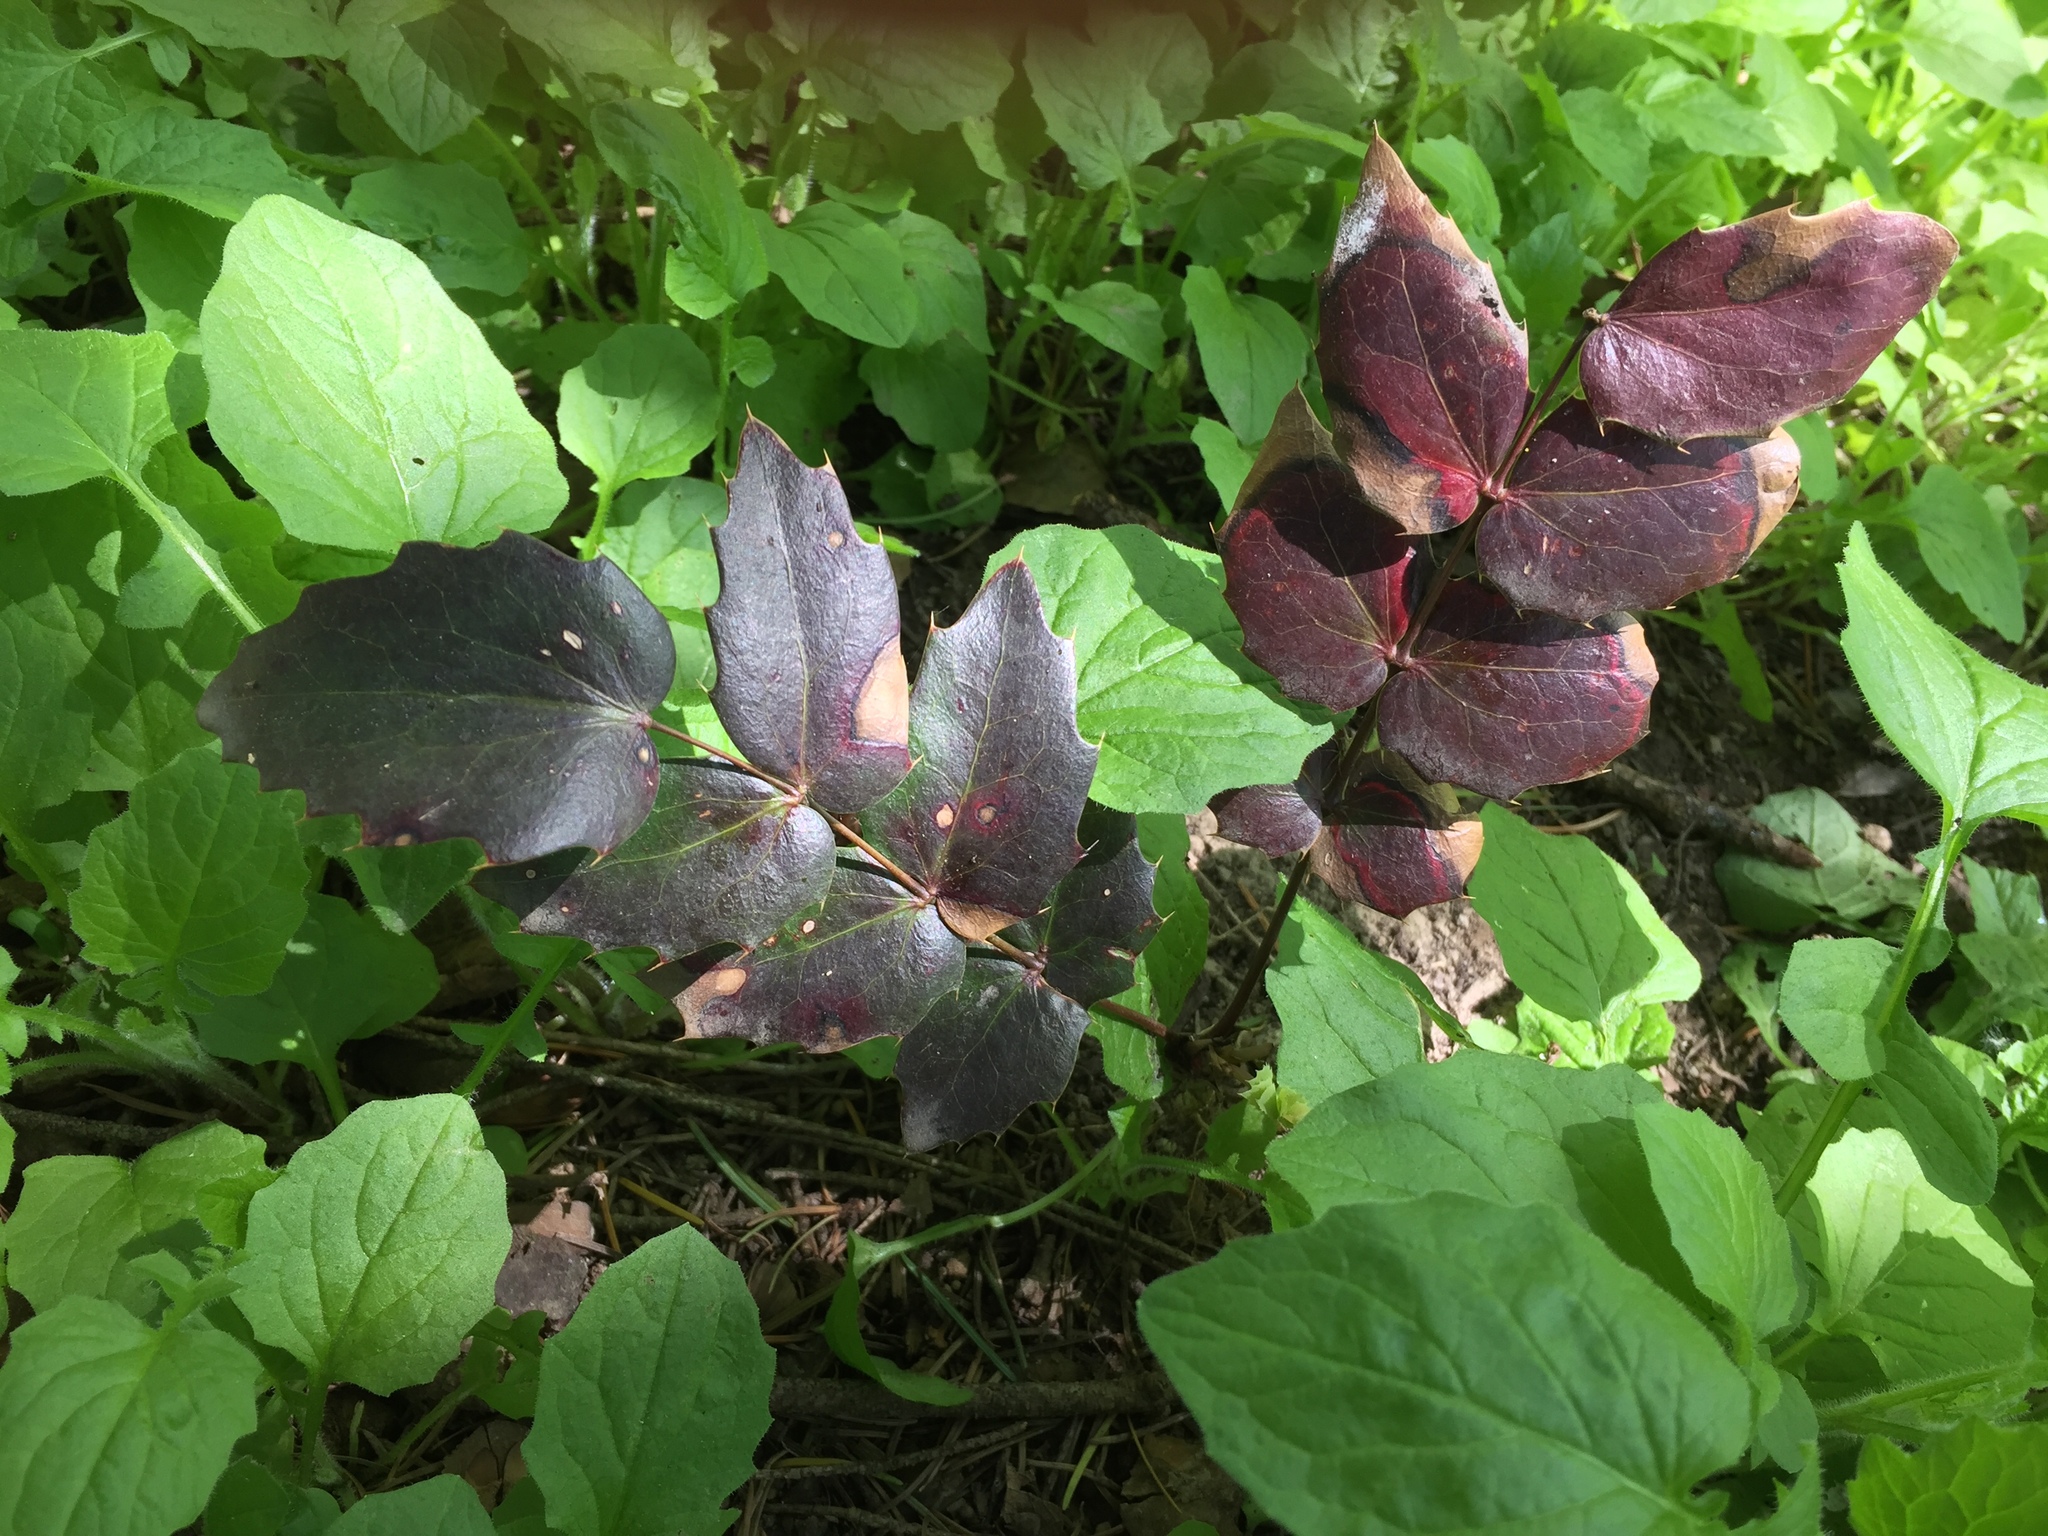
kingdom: Plantae
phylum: Tracheophyta
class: Magnoliopsida
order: Ranunculales
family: Berberidaceae
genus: Mahonia
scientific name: Mahonia nervosa
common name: Cascade oregon-grape
